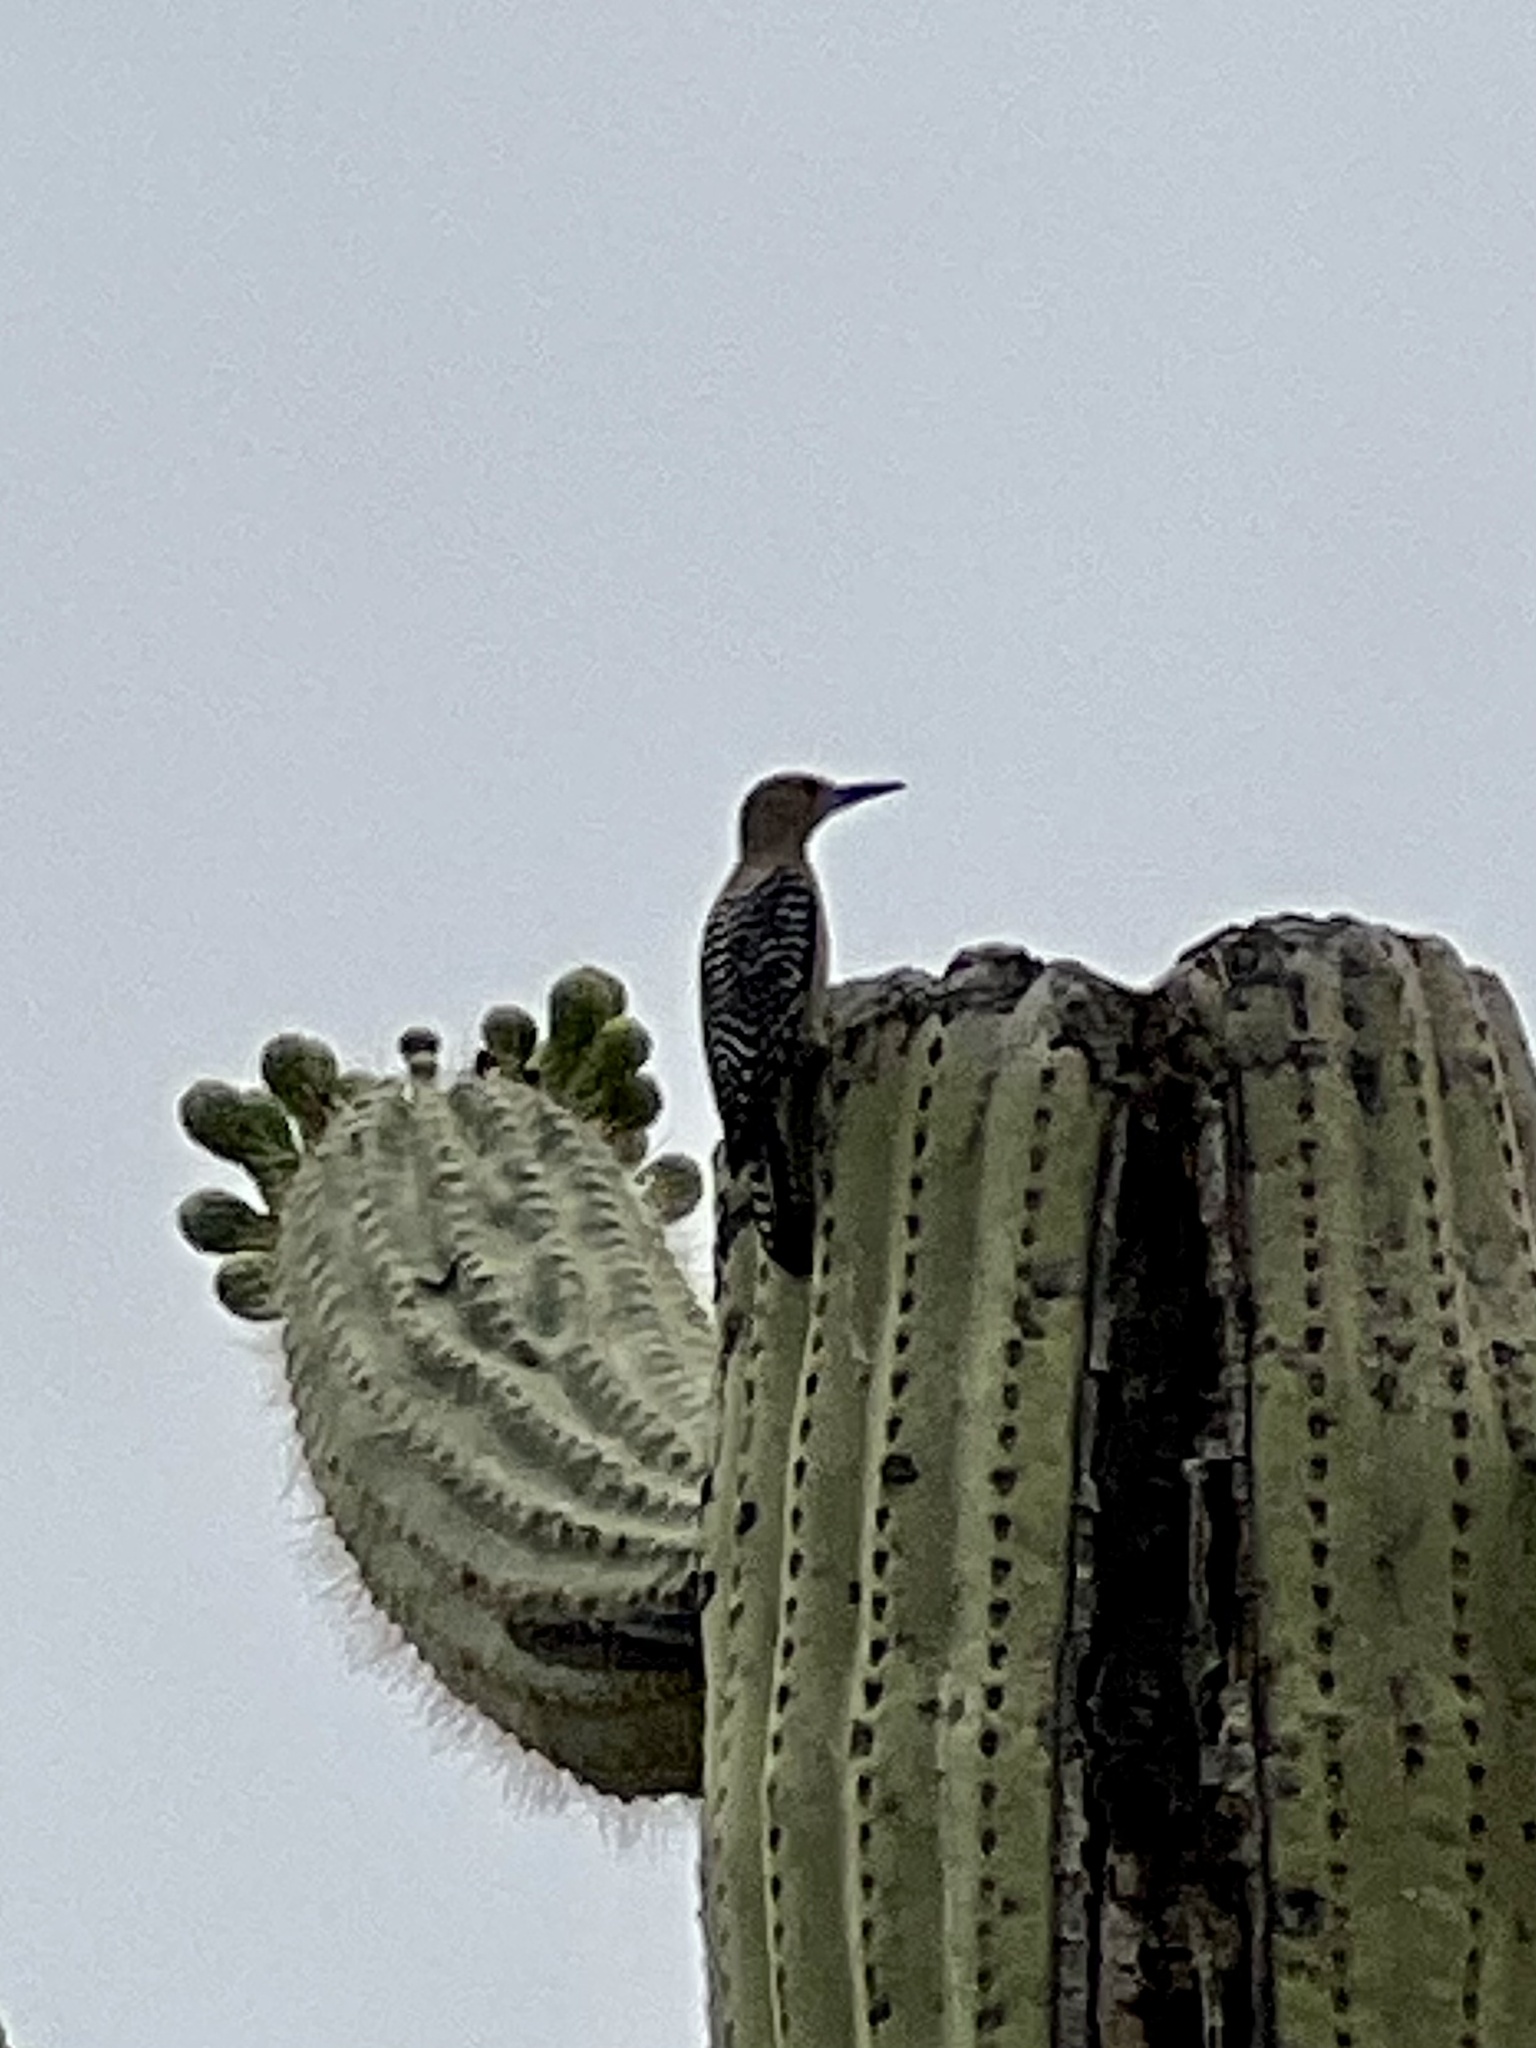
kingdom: Animalia
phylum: Chordata
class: Aves
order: Piciformes
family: Picidae
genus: Melanerpes
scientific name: Melanerpes uropygialis
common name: Gila woodpecker
